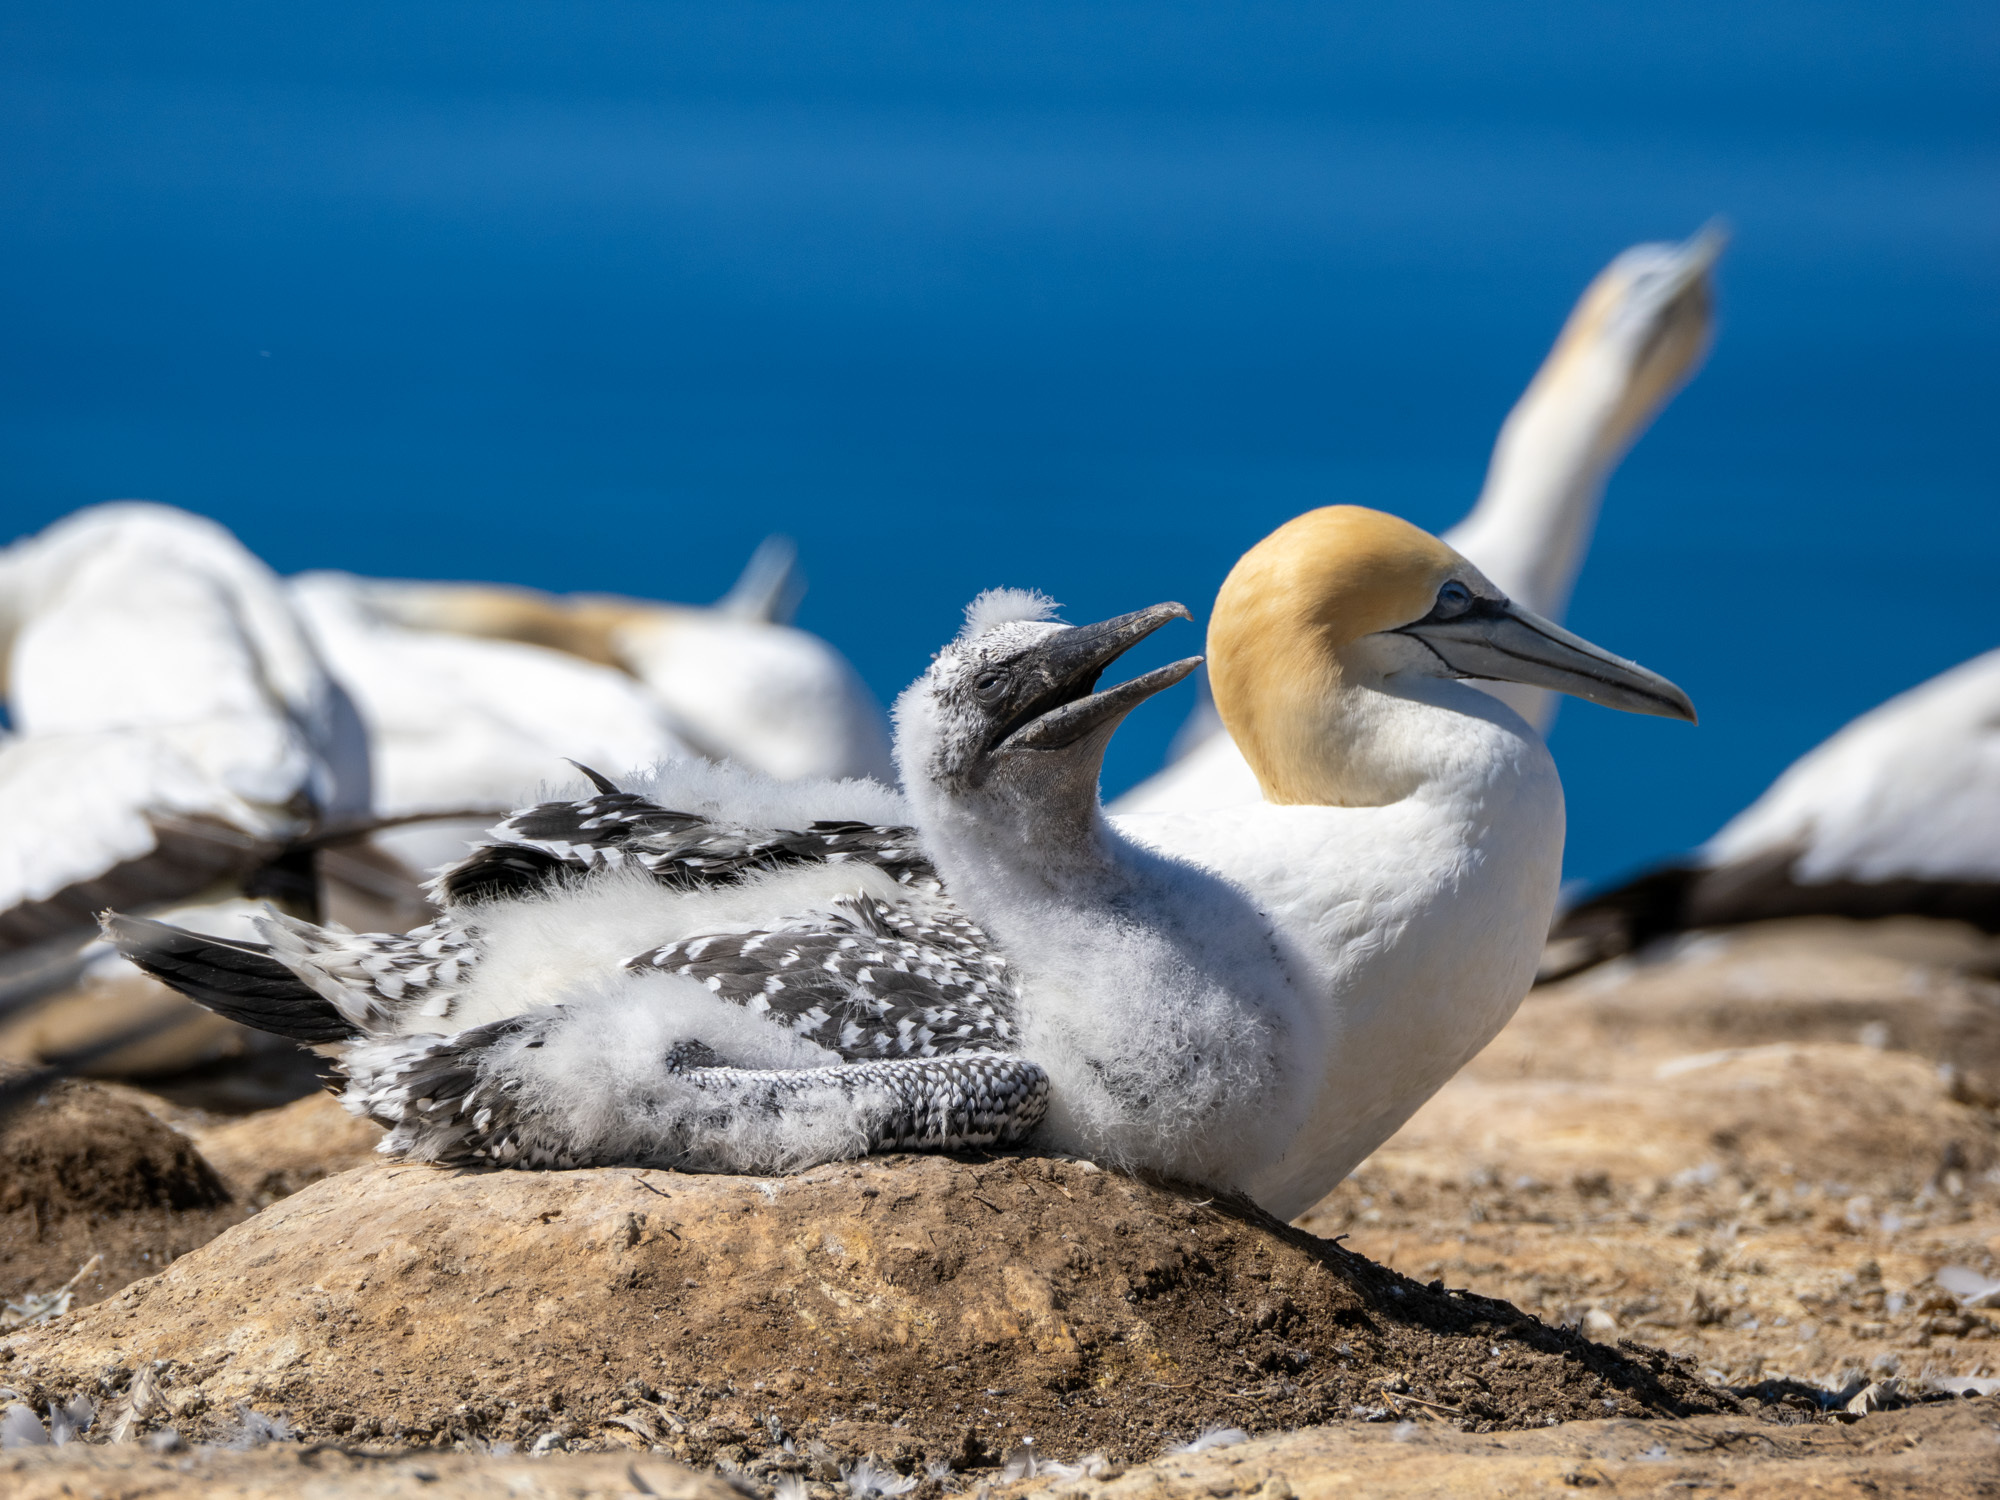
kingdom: Animalia
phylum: Chordata
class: Aves
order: Suliformes
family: Sulidae
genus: Morus
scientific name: Morus serrator
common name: Australasian gannet
